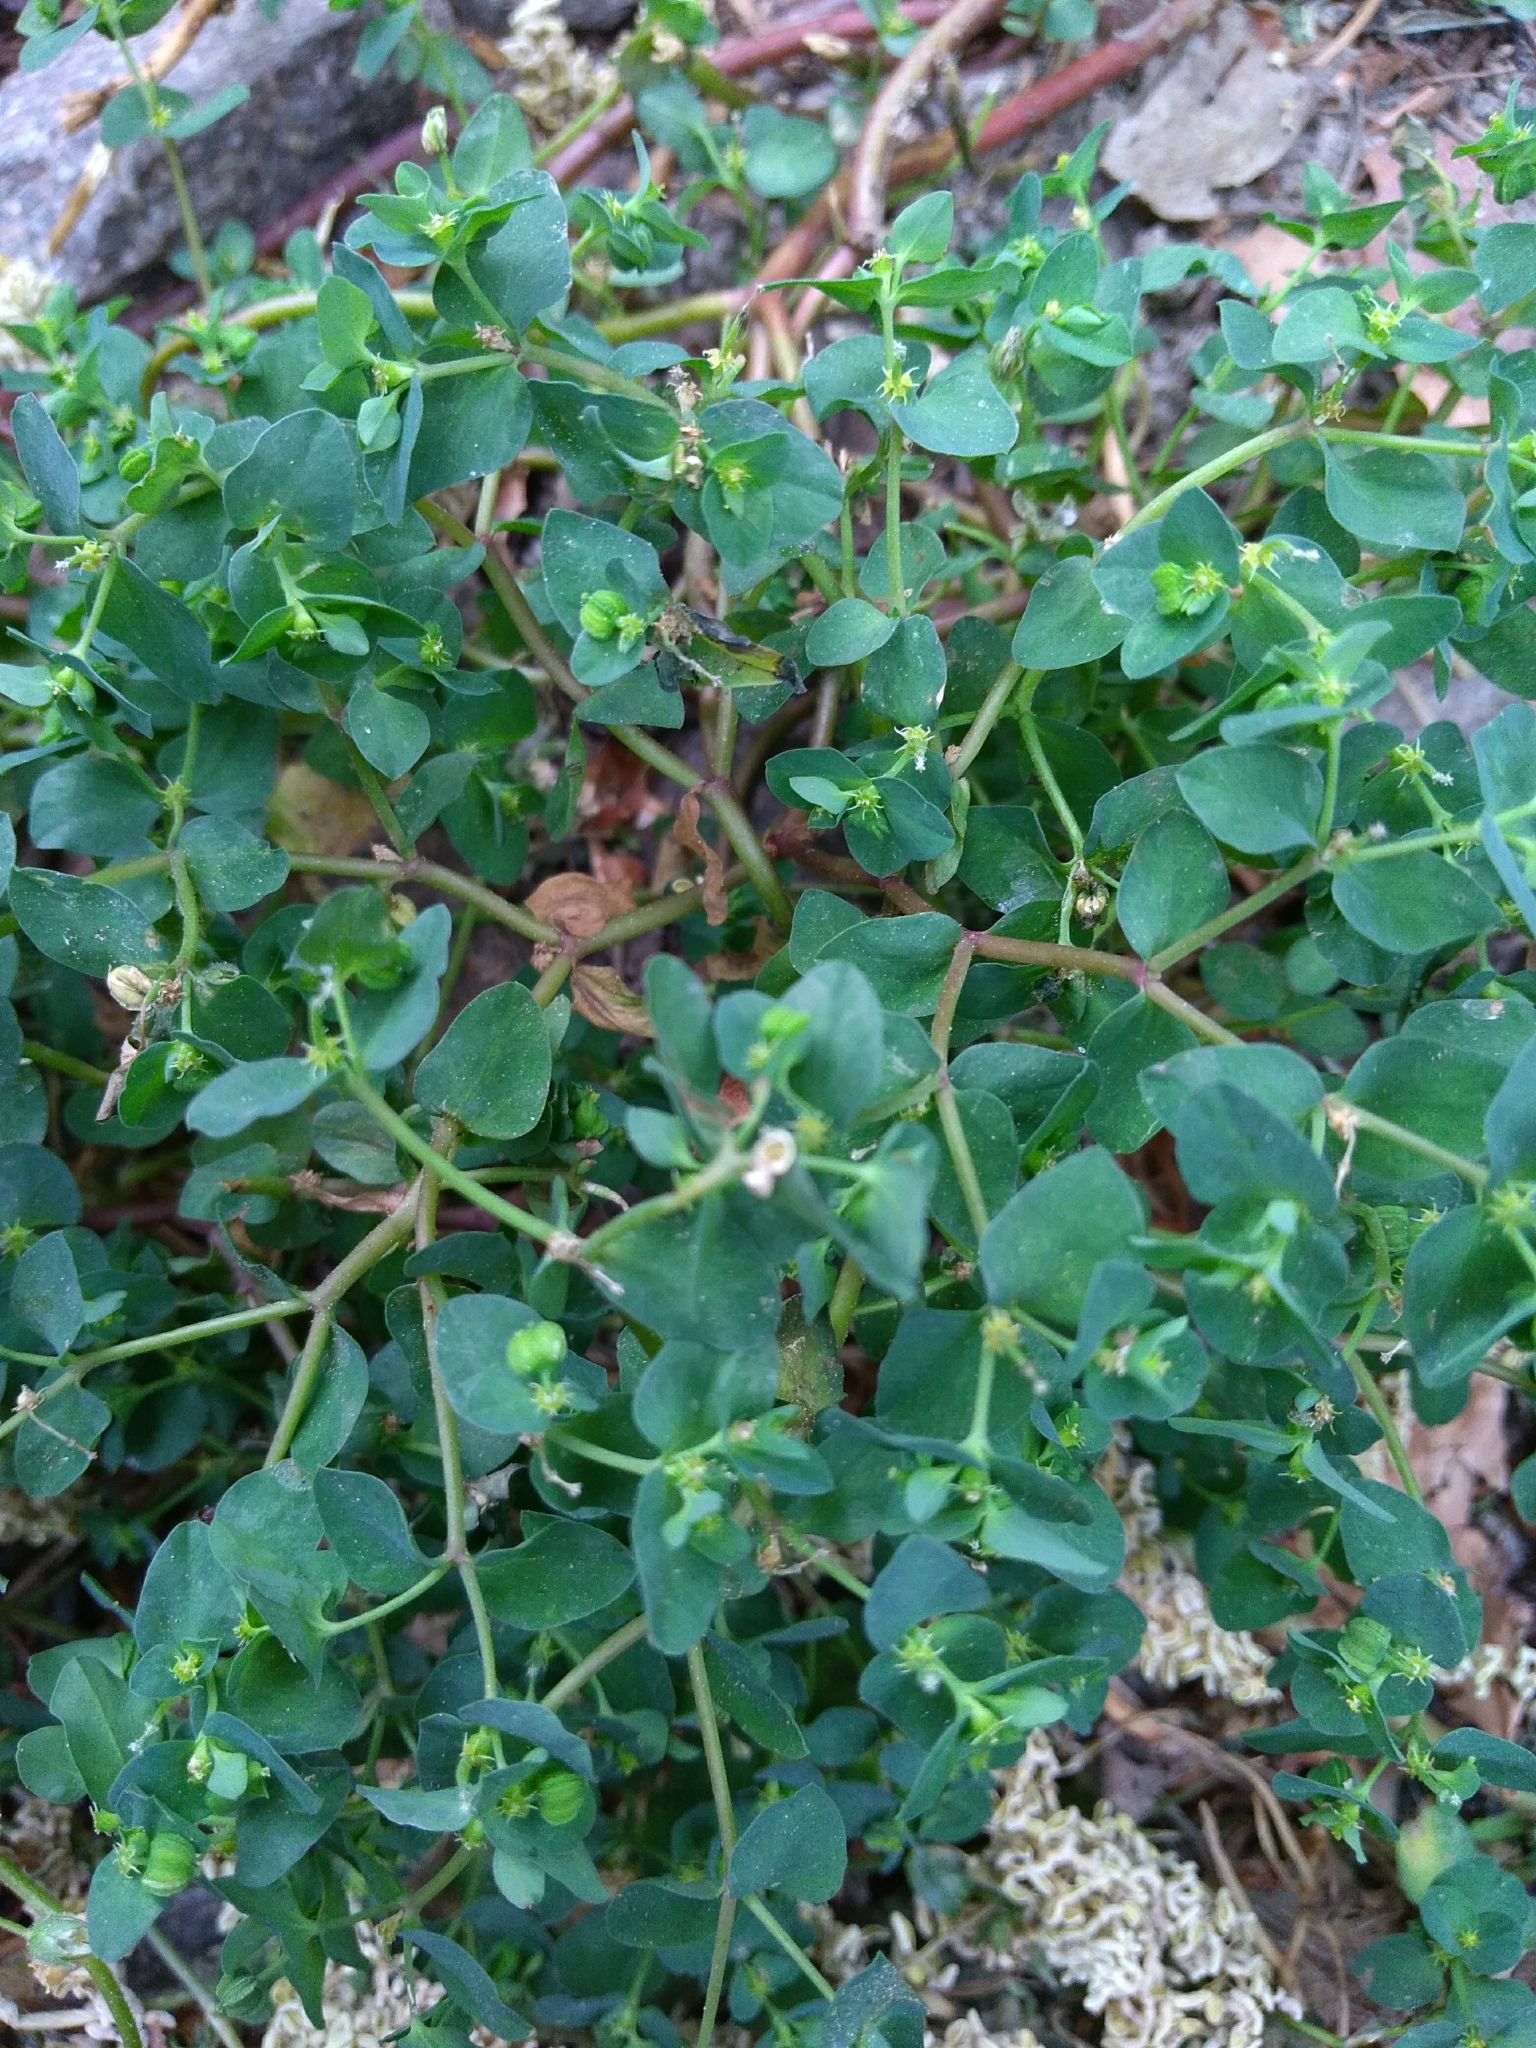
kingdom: Plantae
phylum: Tracheophyta
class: Magnoliopsida
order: Malpighiales
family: Euphorbiaceae
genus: Euphorbia
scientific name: Euphorbia peplus
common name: Petty spurge
